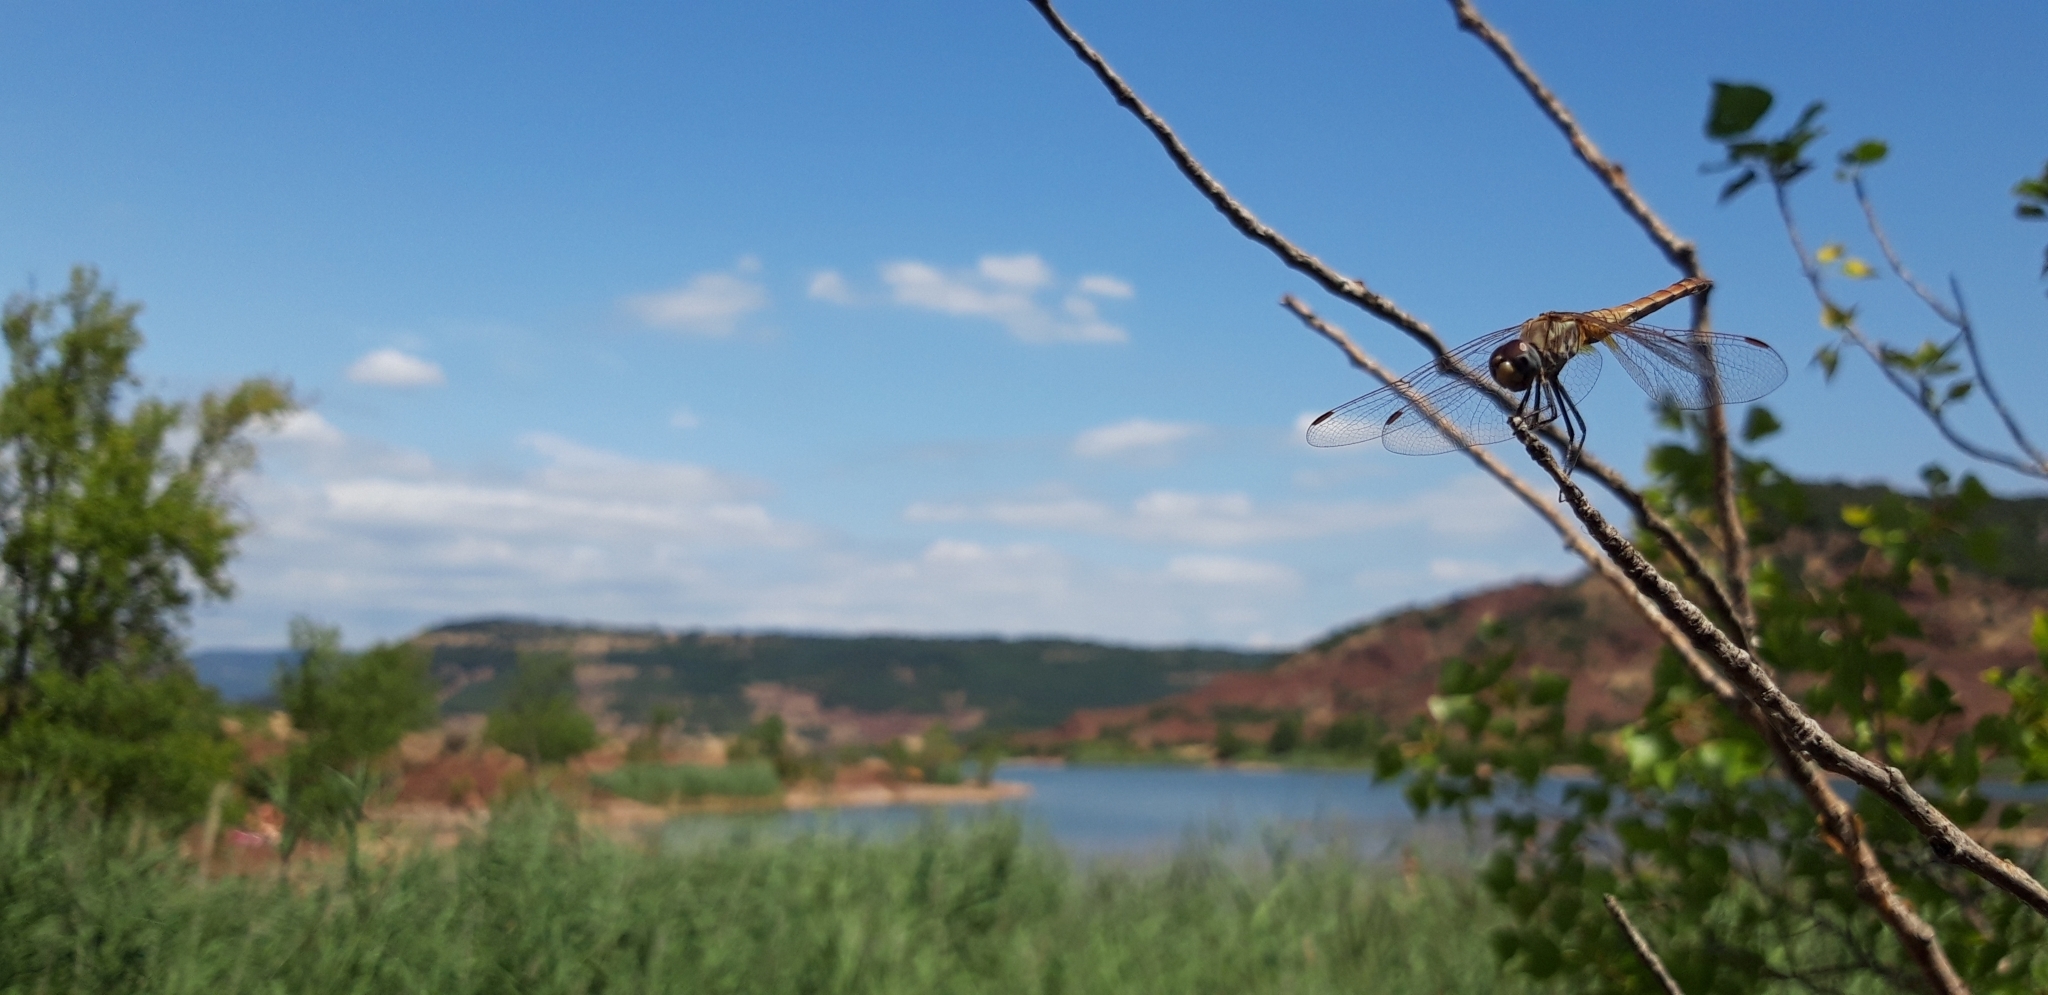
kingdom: Animalia
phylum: Arthropoda
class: Insecta
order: Odonata
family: Libellulidae
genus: Trithemis
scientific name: Trithemis annulata
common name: Violet dropwing
